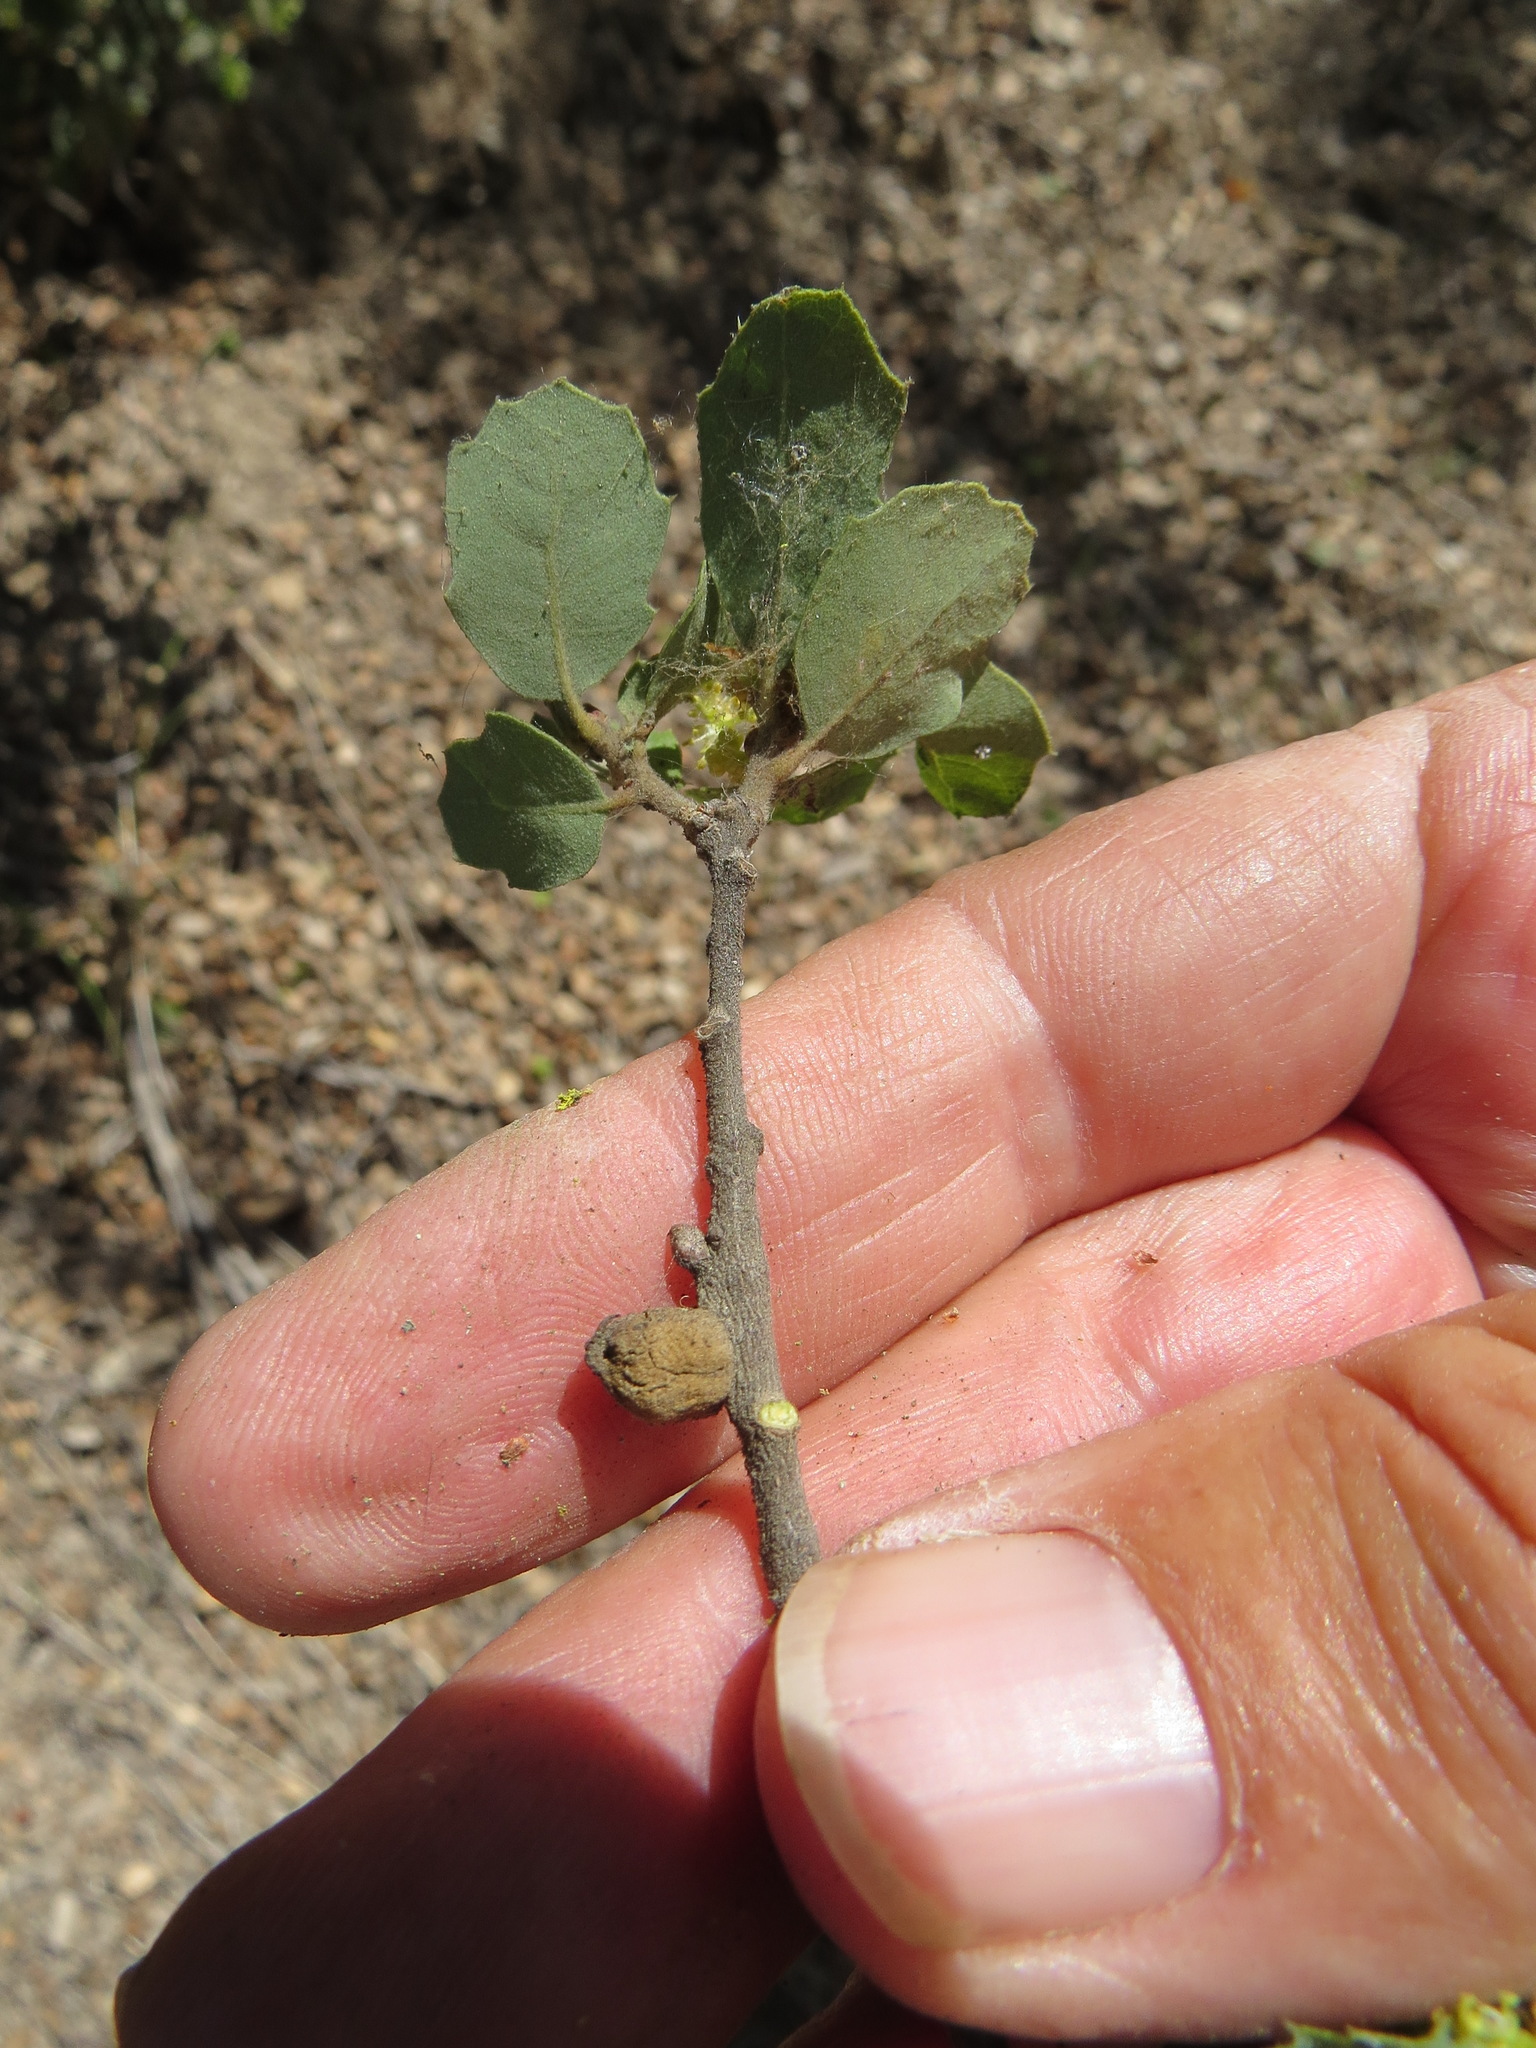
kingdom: Animalia
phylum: Arthropoda
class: Insecta
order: Hymenoptera
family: Cynipidae
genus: Disholcaspis
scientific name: Disholcaspis mamillana
